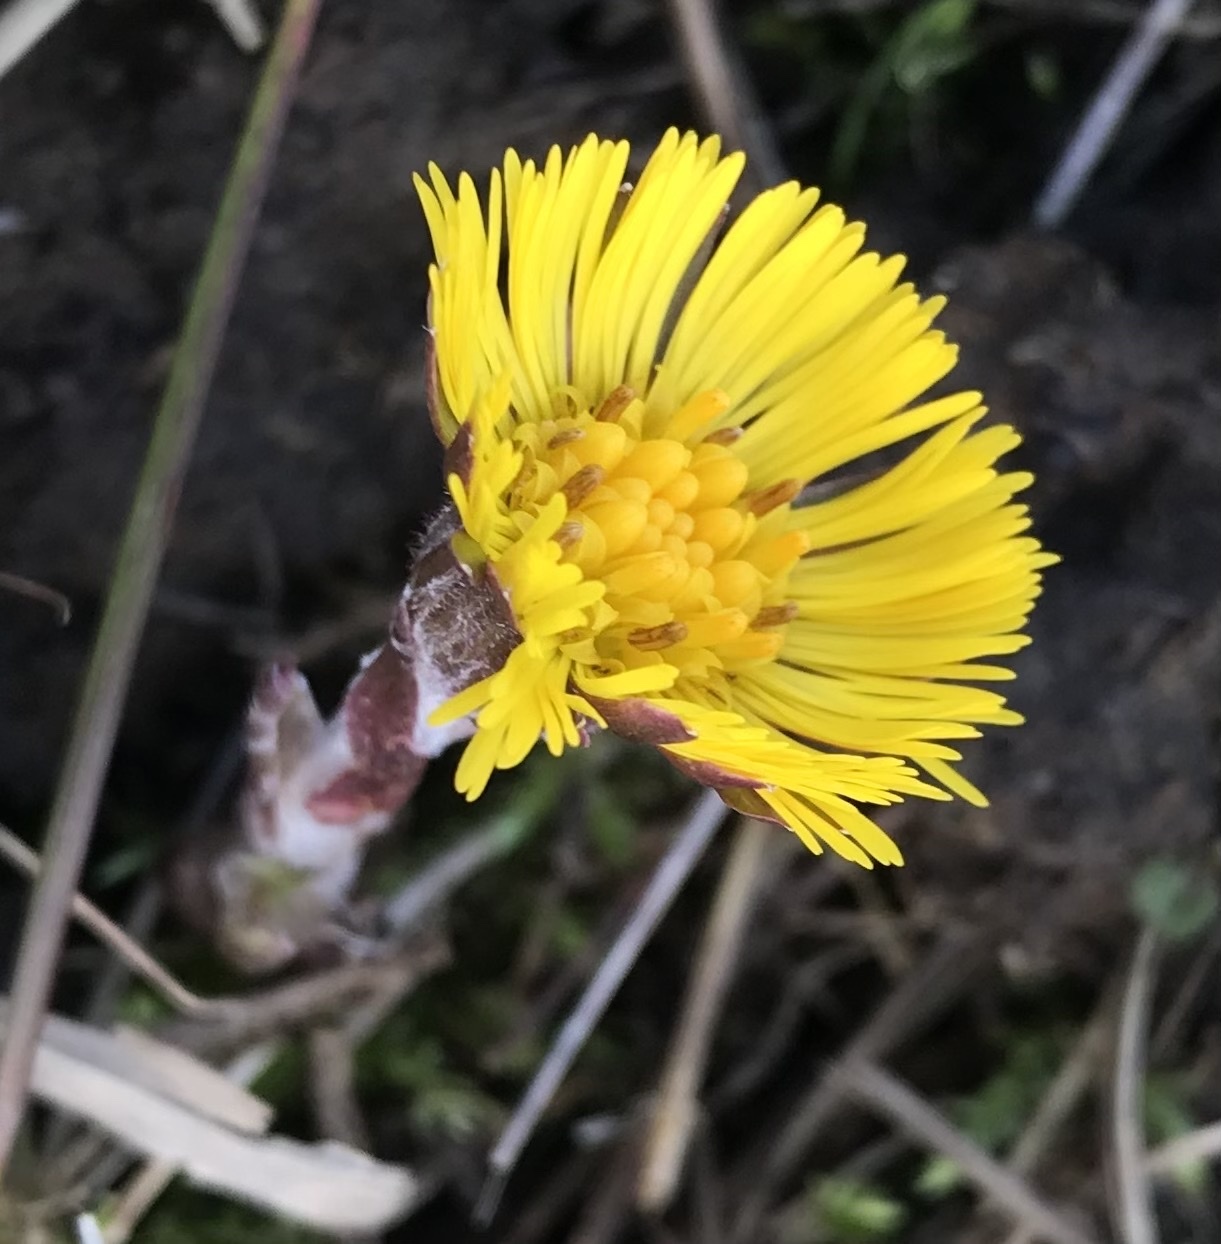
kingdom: Plantae
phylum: Tracheophyta
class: Magnoliopsida
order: Asterales
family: Asteraceae
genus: Tussilago
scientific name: Tussilago farfara
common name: Coltsfoot
